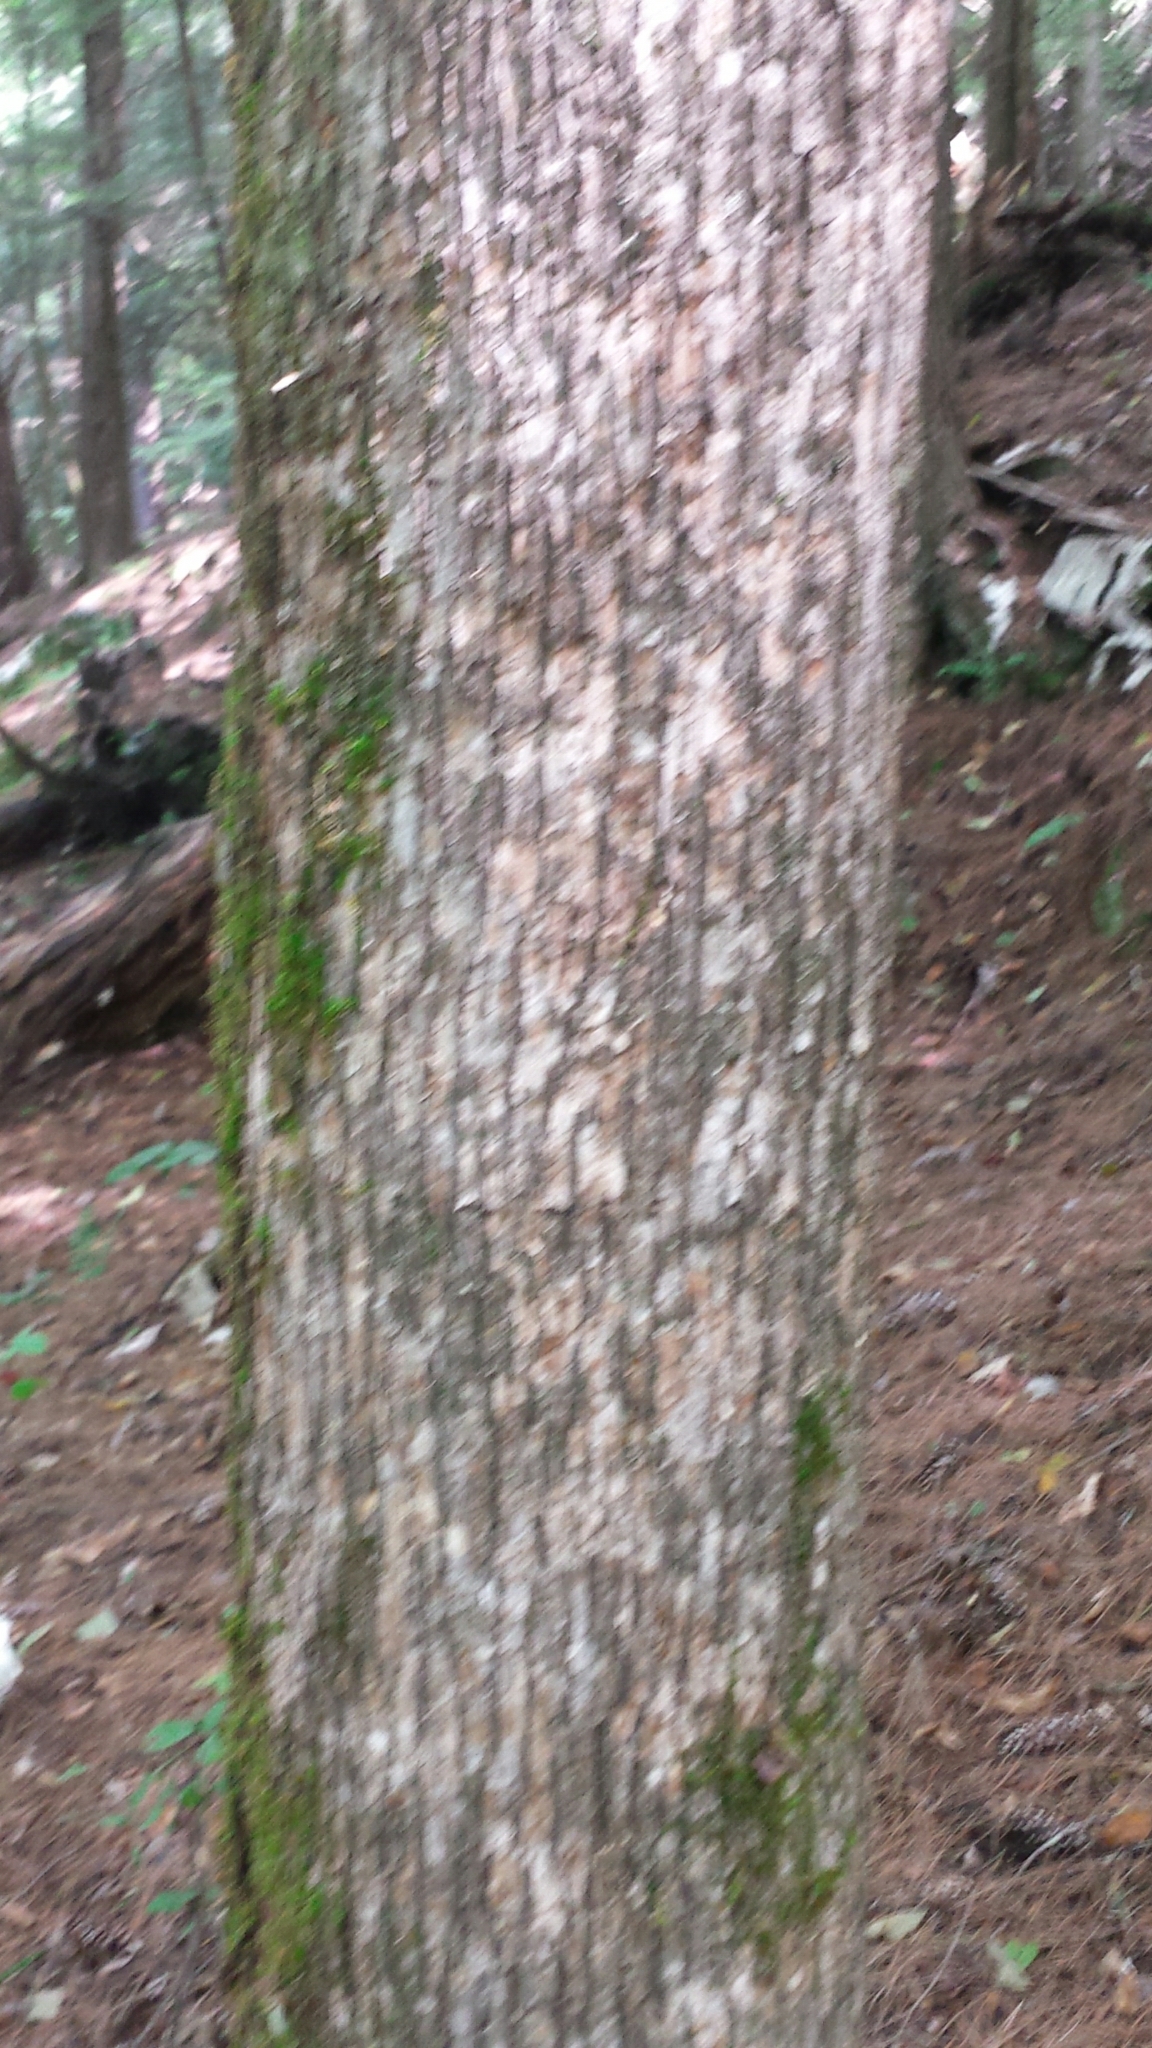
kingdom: Plantae
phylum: Tracheophyta
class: Magnoliopsida
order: Fagales
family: Betulaceae
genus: Ostrya
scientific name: Ostrya virginiana
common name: Ironwood
